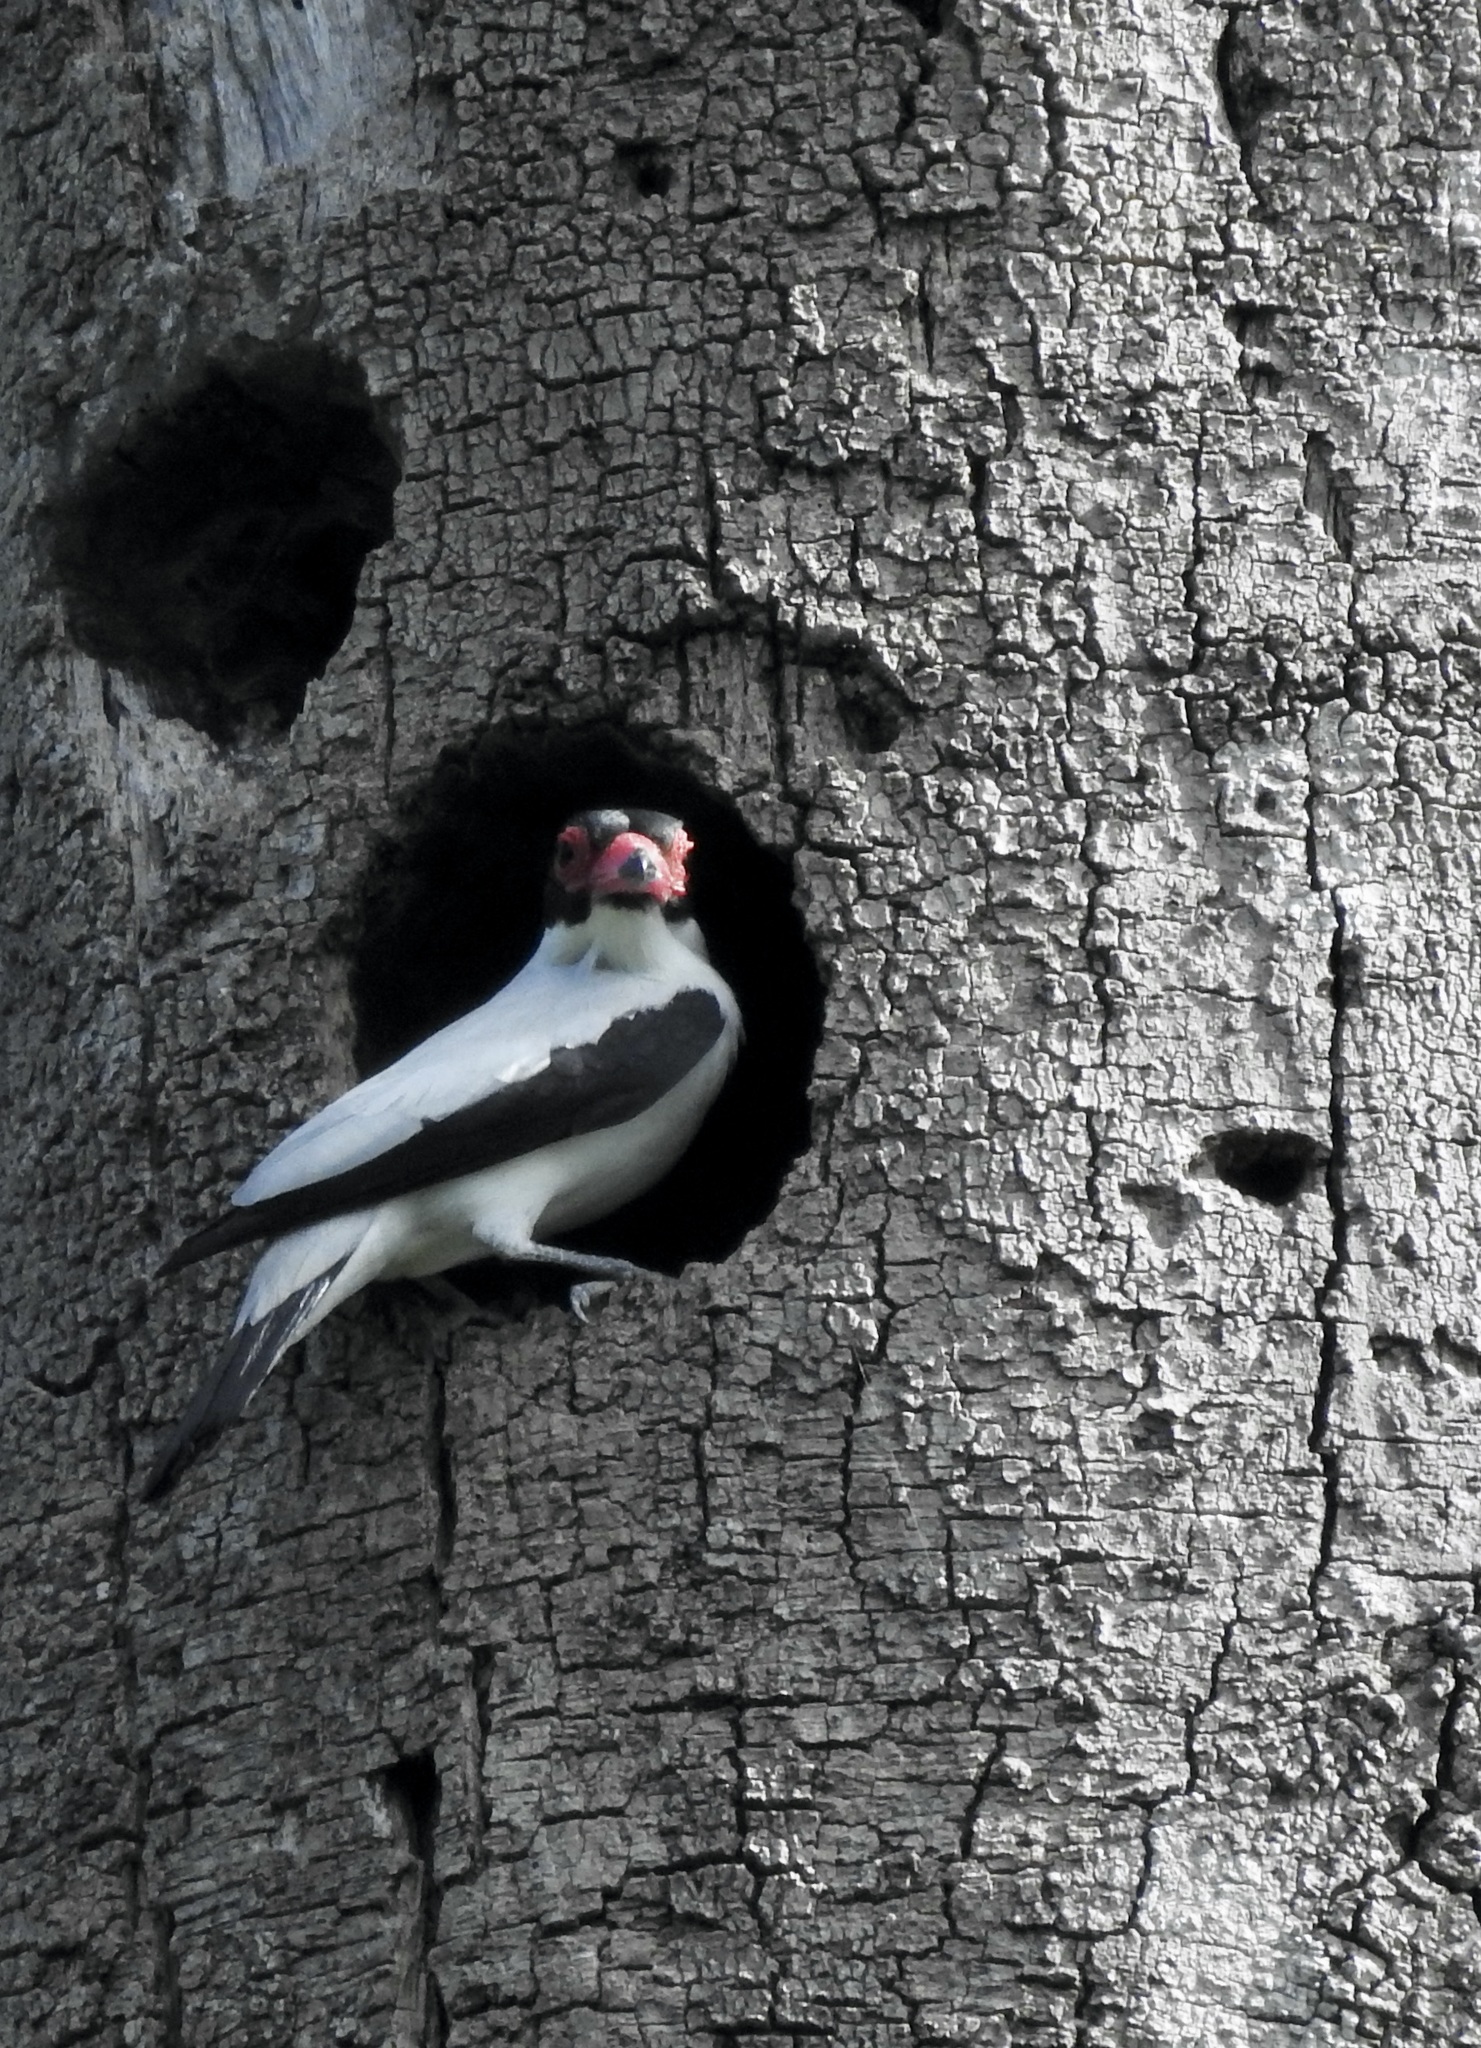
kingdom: Animalia
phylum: Chordata
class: Aves
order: Passeriformes
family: Cotingidae
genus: Tityra
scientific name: Tityra cayana
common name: Black-tailed tityra
